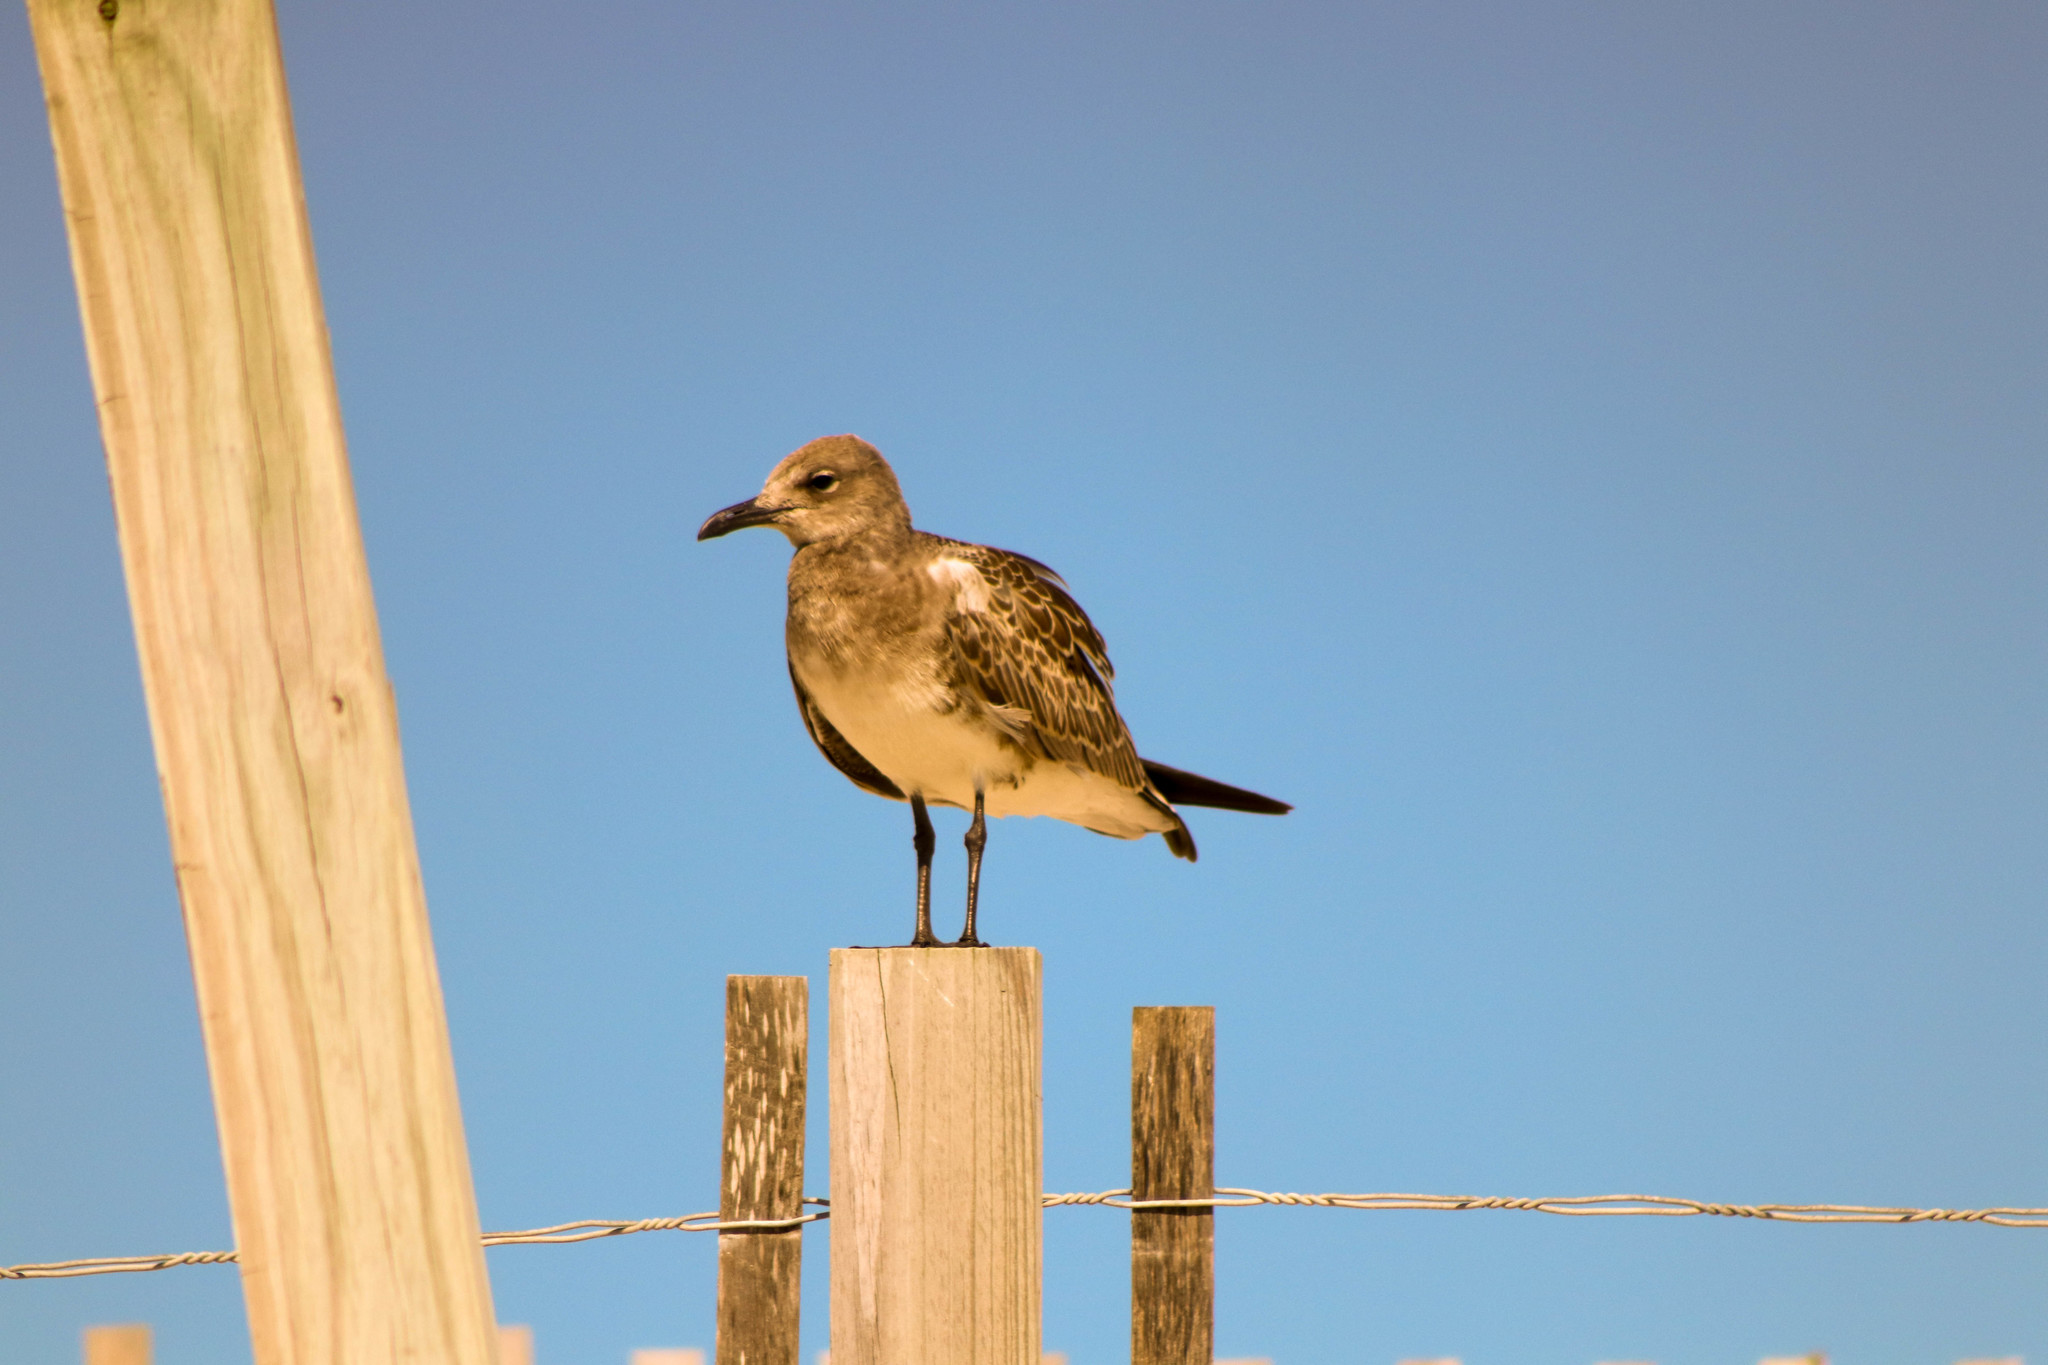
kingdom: Animalia
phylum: Chordata
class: Aves
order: Charadriiformes
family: Laridae
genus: Leucophaeus
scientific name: Leucophaeus atricilla
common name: Laughing gull
